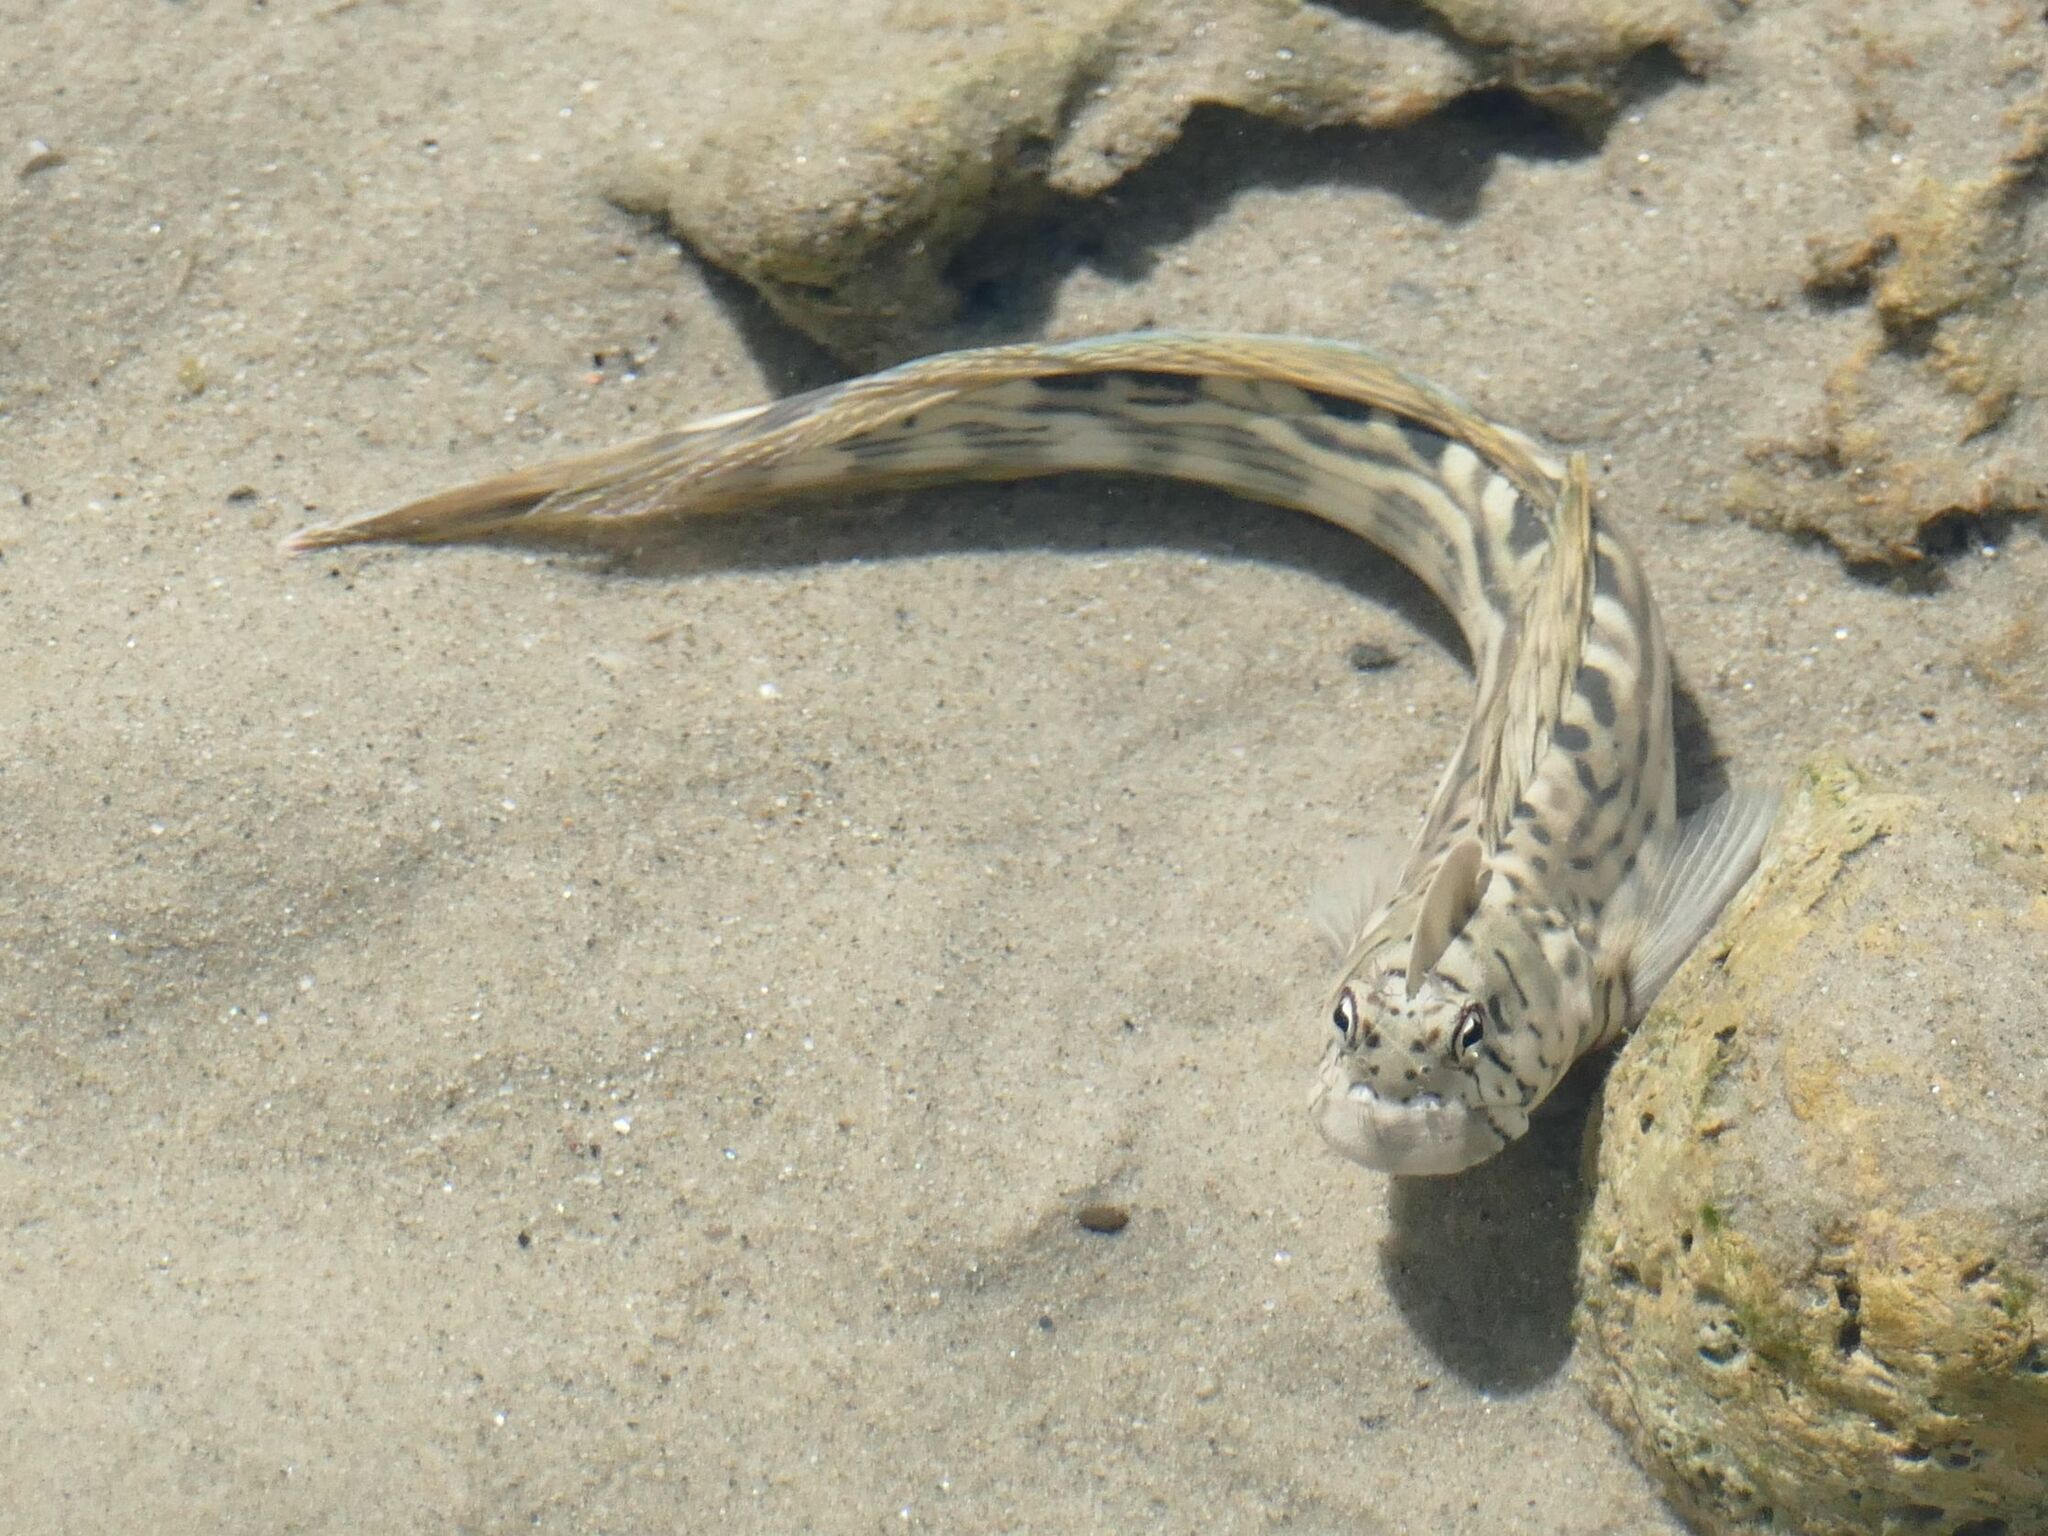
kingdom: Animalia
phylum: Chordata
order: Perciformes
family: Blenniidae
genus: Istiblennius
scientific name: Istiblennius lineatus
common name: Black-lined blenny
